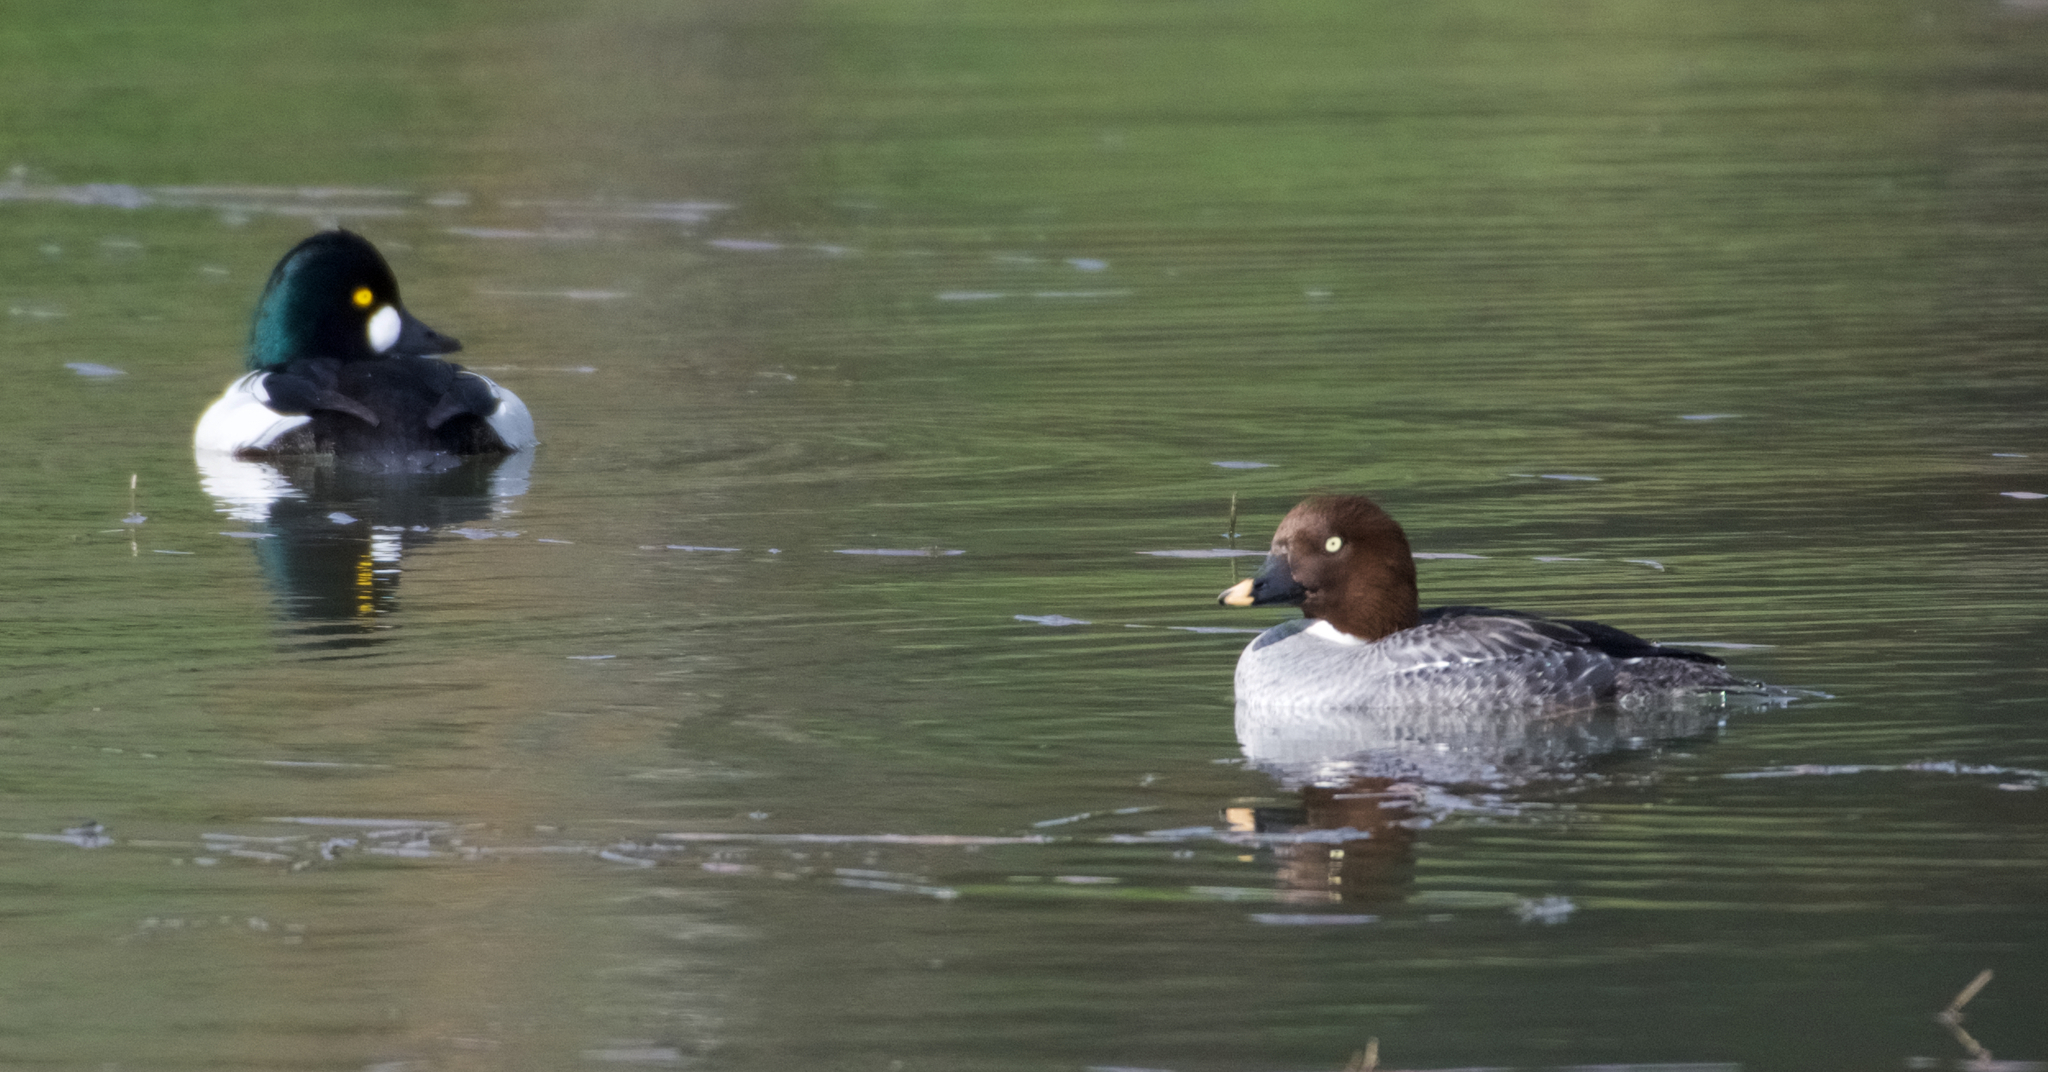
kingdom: Animalia
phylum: Chordata
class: Aves
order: Anseriformes
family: Anatidae
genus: Bucephala
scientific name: Bucephala clangula
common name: Common goldeneye
